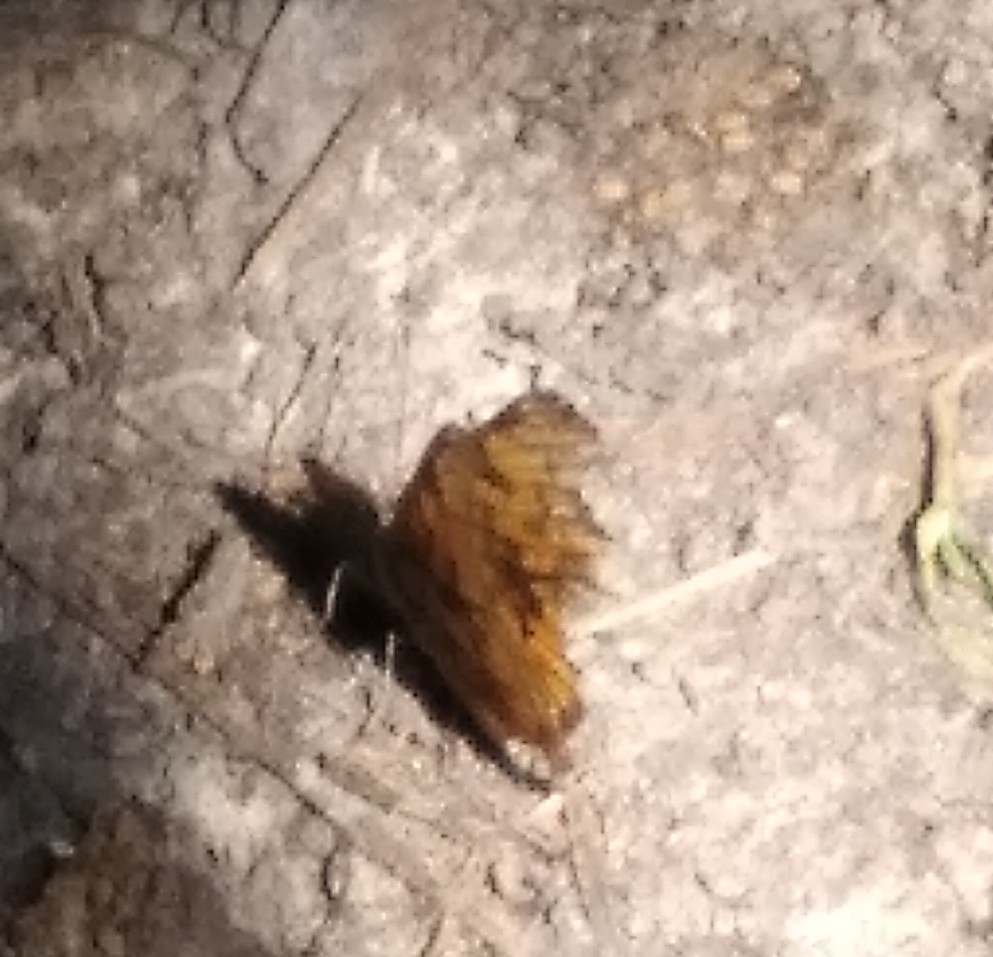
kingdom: Animalia
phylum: Arthropoda
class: Insecta
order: Lepidoptera
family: Nymphalidae
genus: Polygonia
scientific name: Polygonia c-album
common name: Comma
